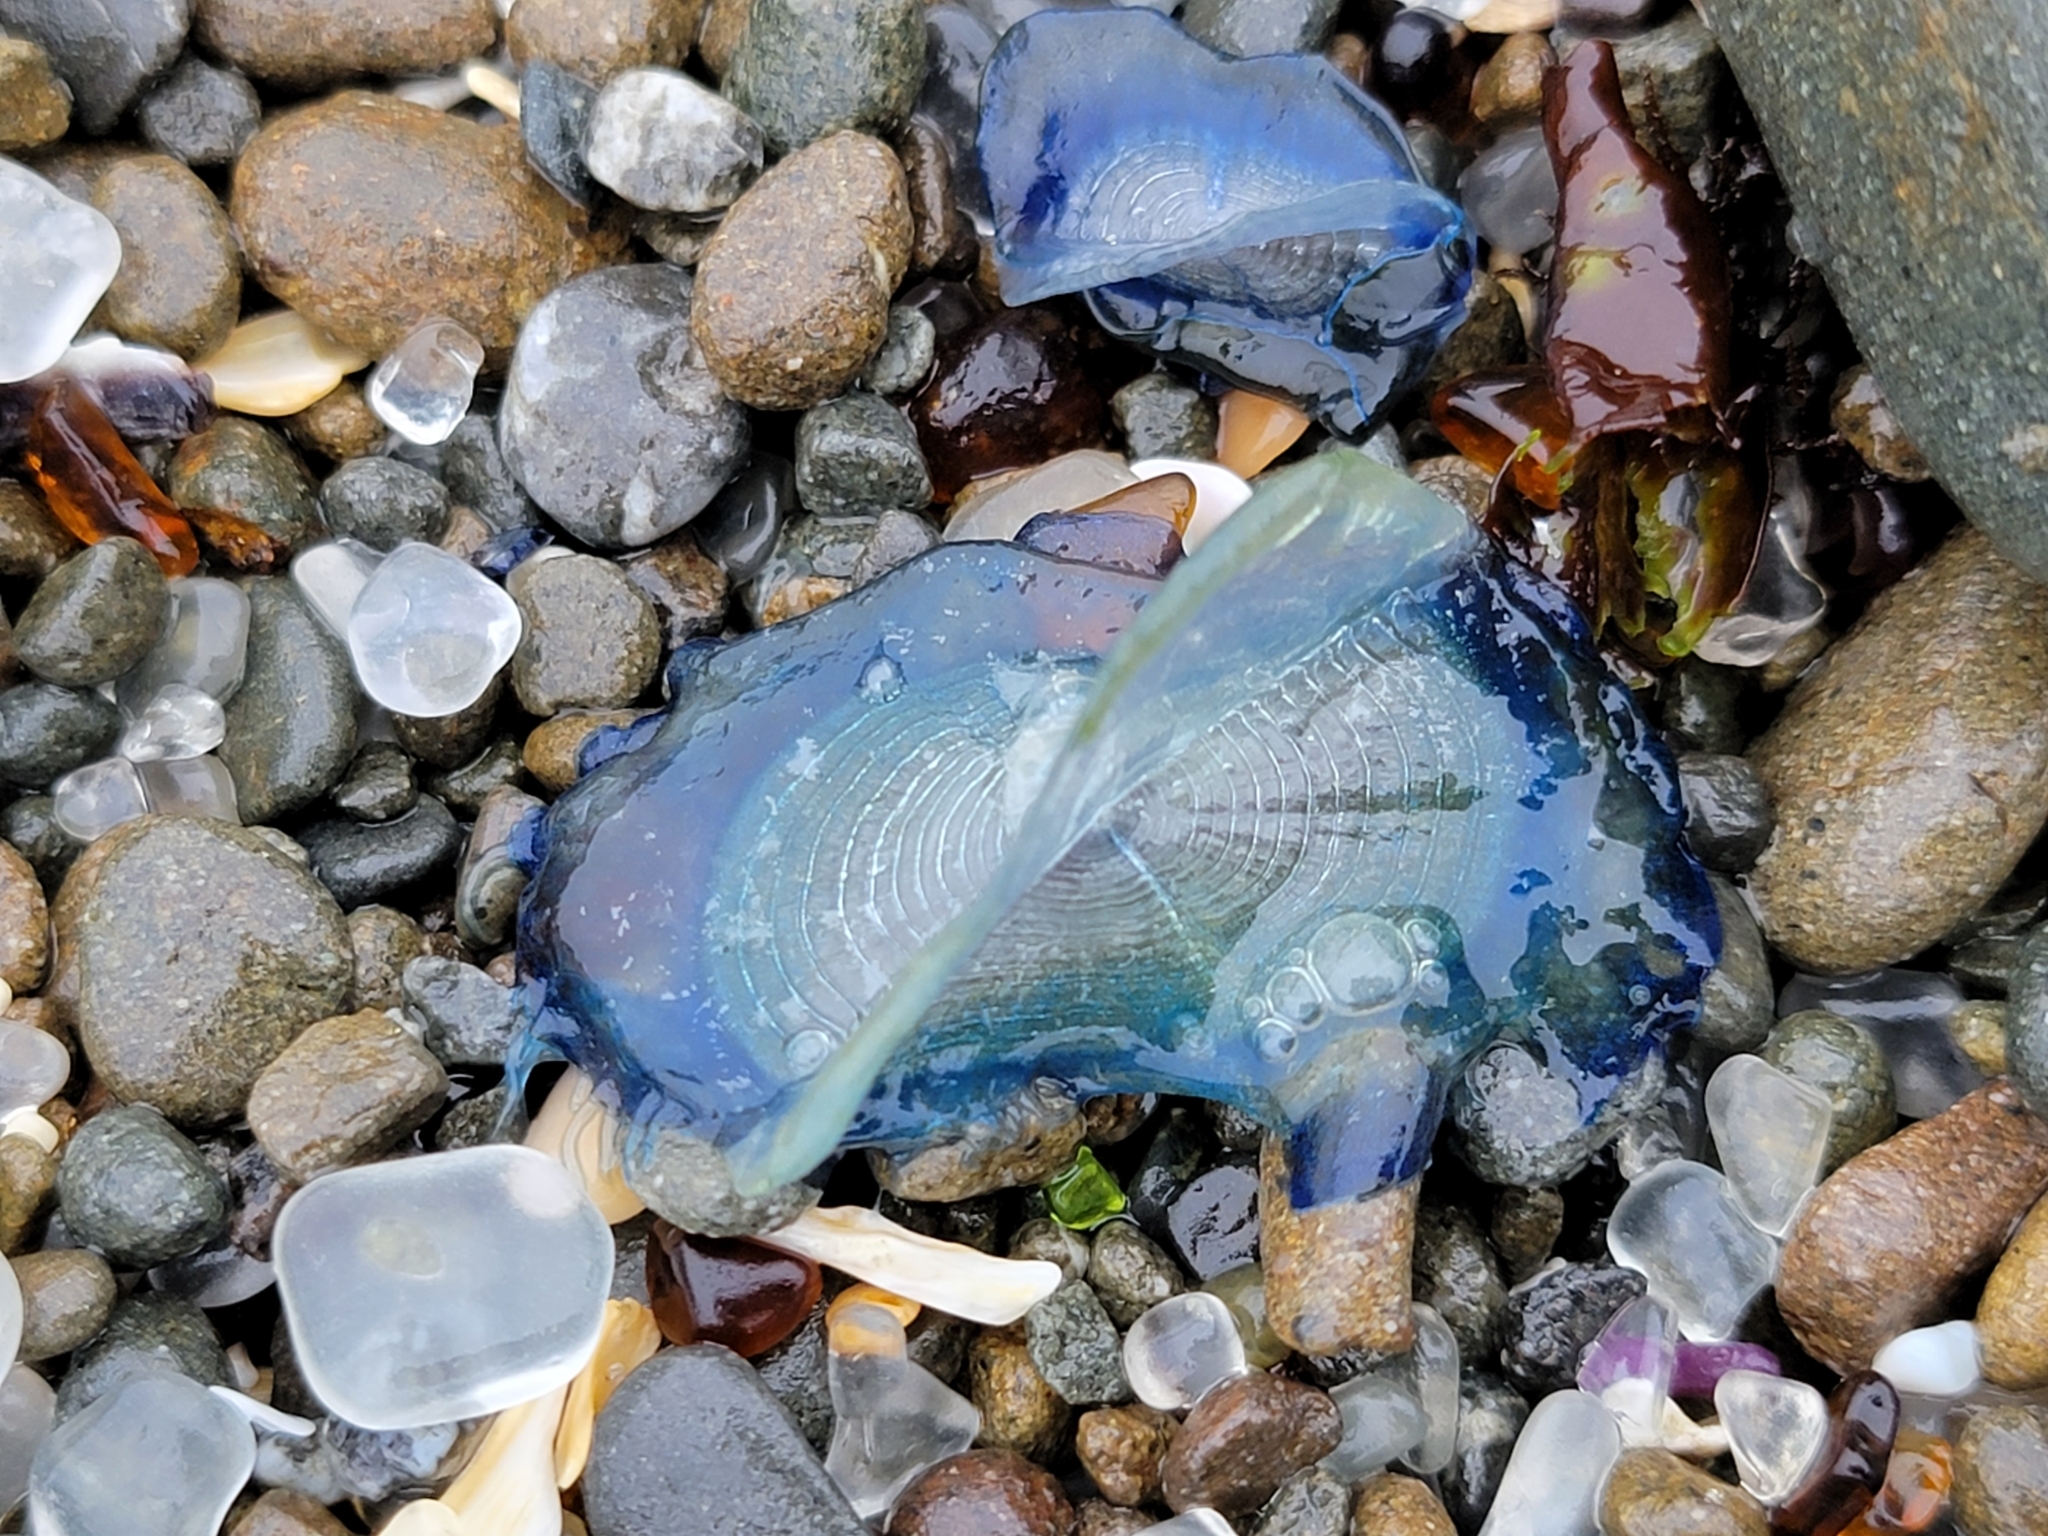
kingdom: Animalia
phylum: Cnidaria
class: Hydrozoa
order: Anthoathecata
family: Porpitidae
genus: Velella
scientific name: Velella velella
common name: By-the-wind-sailor
